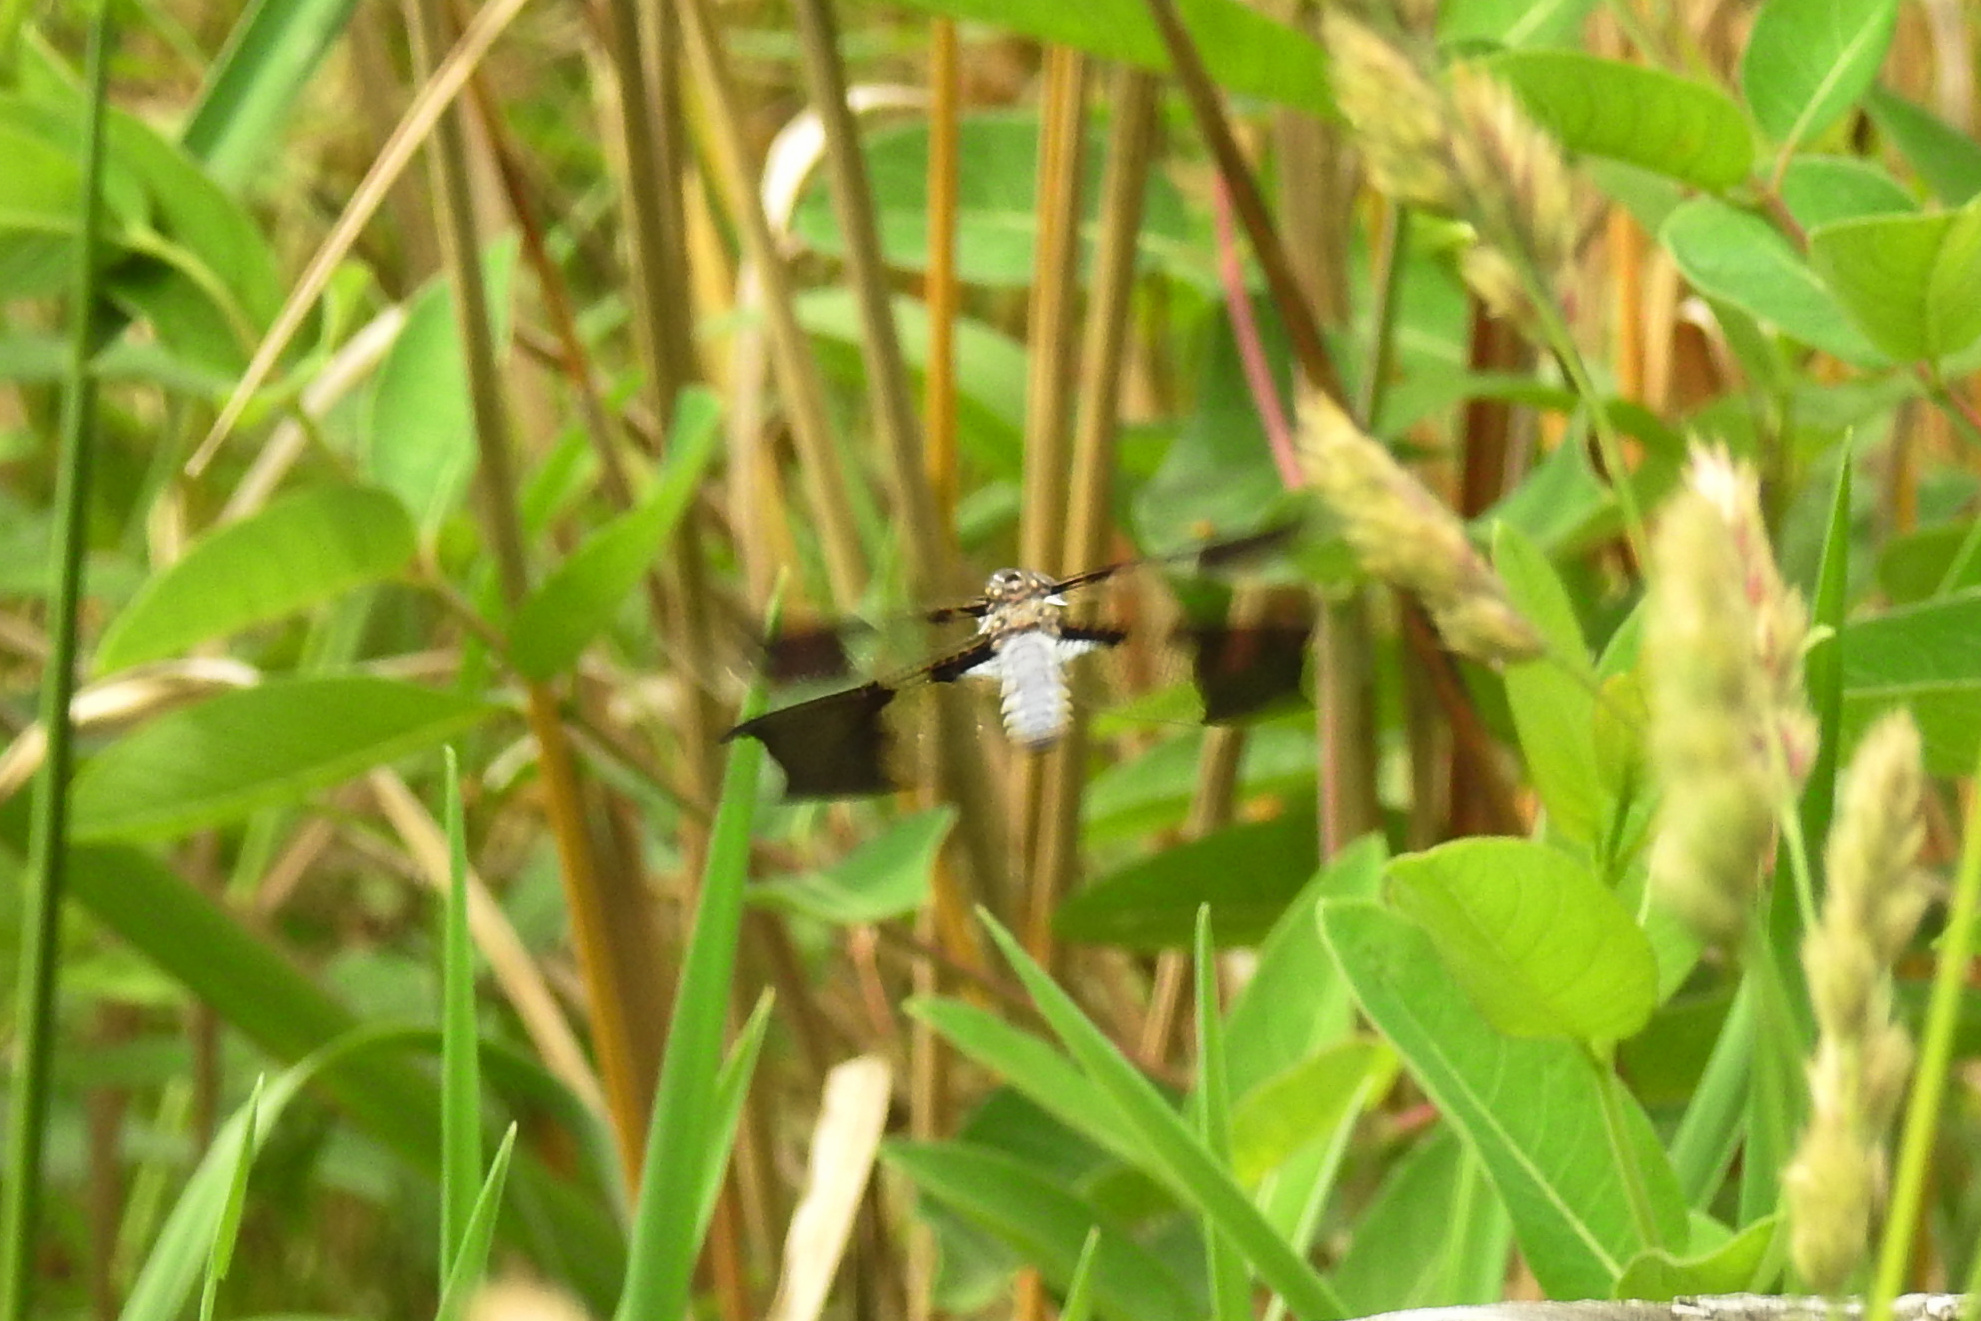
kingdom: Animalia
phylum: Arthropoda
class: Insecta
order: Odonata
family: Libellulidae
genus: Plathemis
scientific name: Plathemis lydia
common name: Common whitetail
